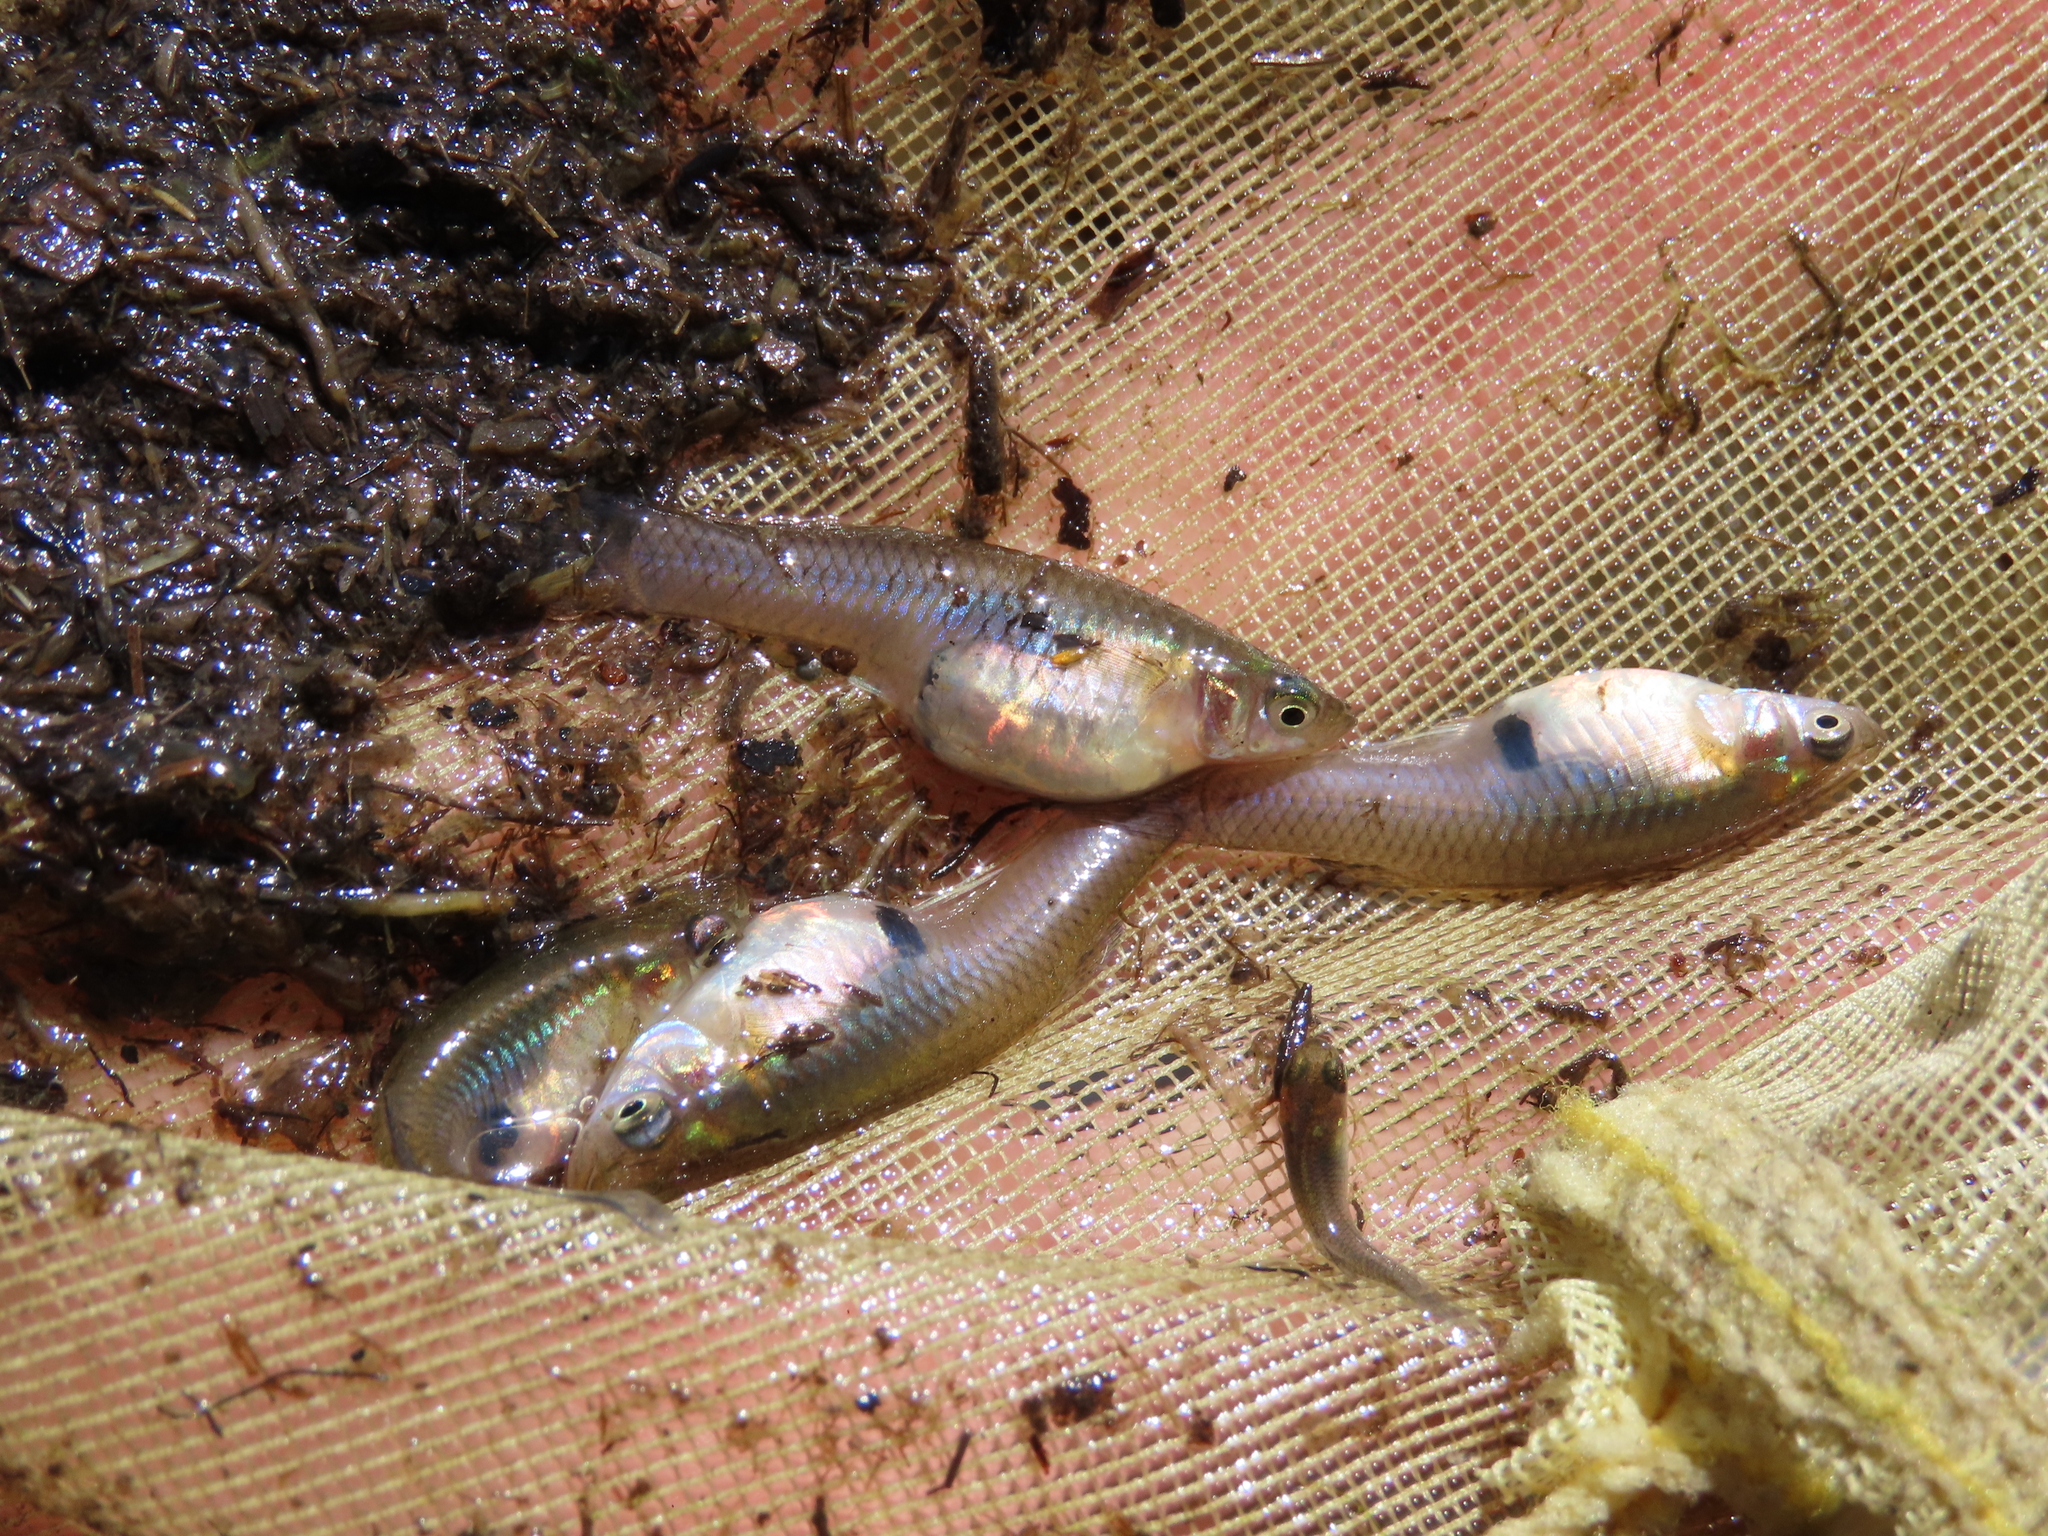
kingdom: Animalia
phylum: Chordata
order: Cyprinodontiformes
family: Poeciliidae
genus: Gambusia
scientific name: Gambusia holbrooki
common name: Eastern mosquitofish
